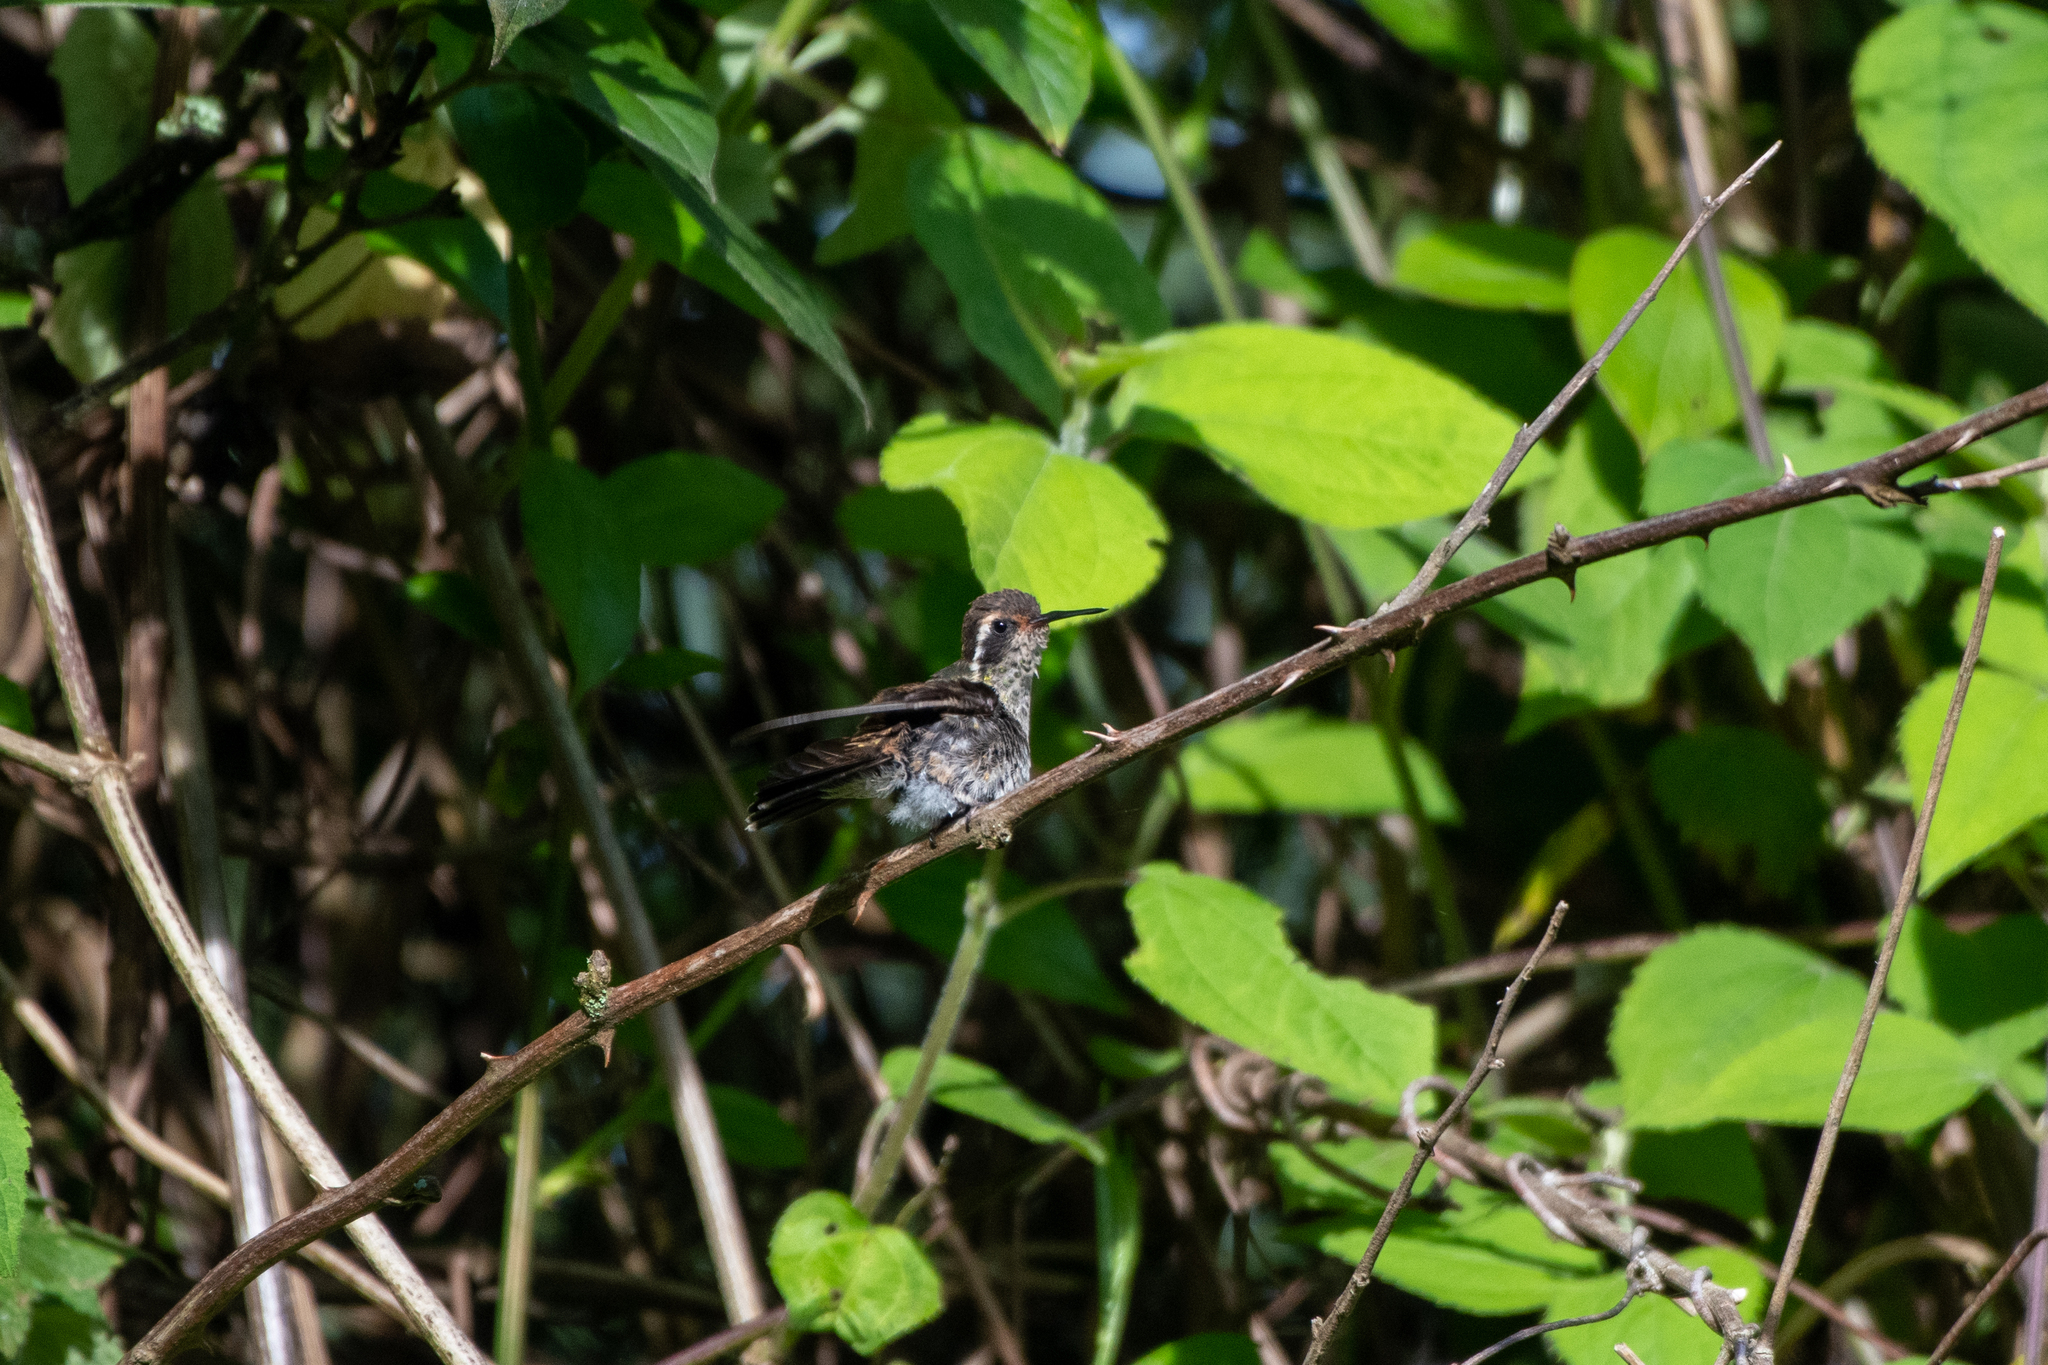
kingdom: Animalia
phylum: Chordata
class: Aves
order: Apodiformes
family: Trochilidae
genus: Basilinna
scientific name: Basilinna leucotis
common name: White-eared hummingbird
